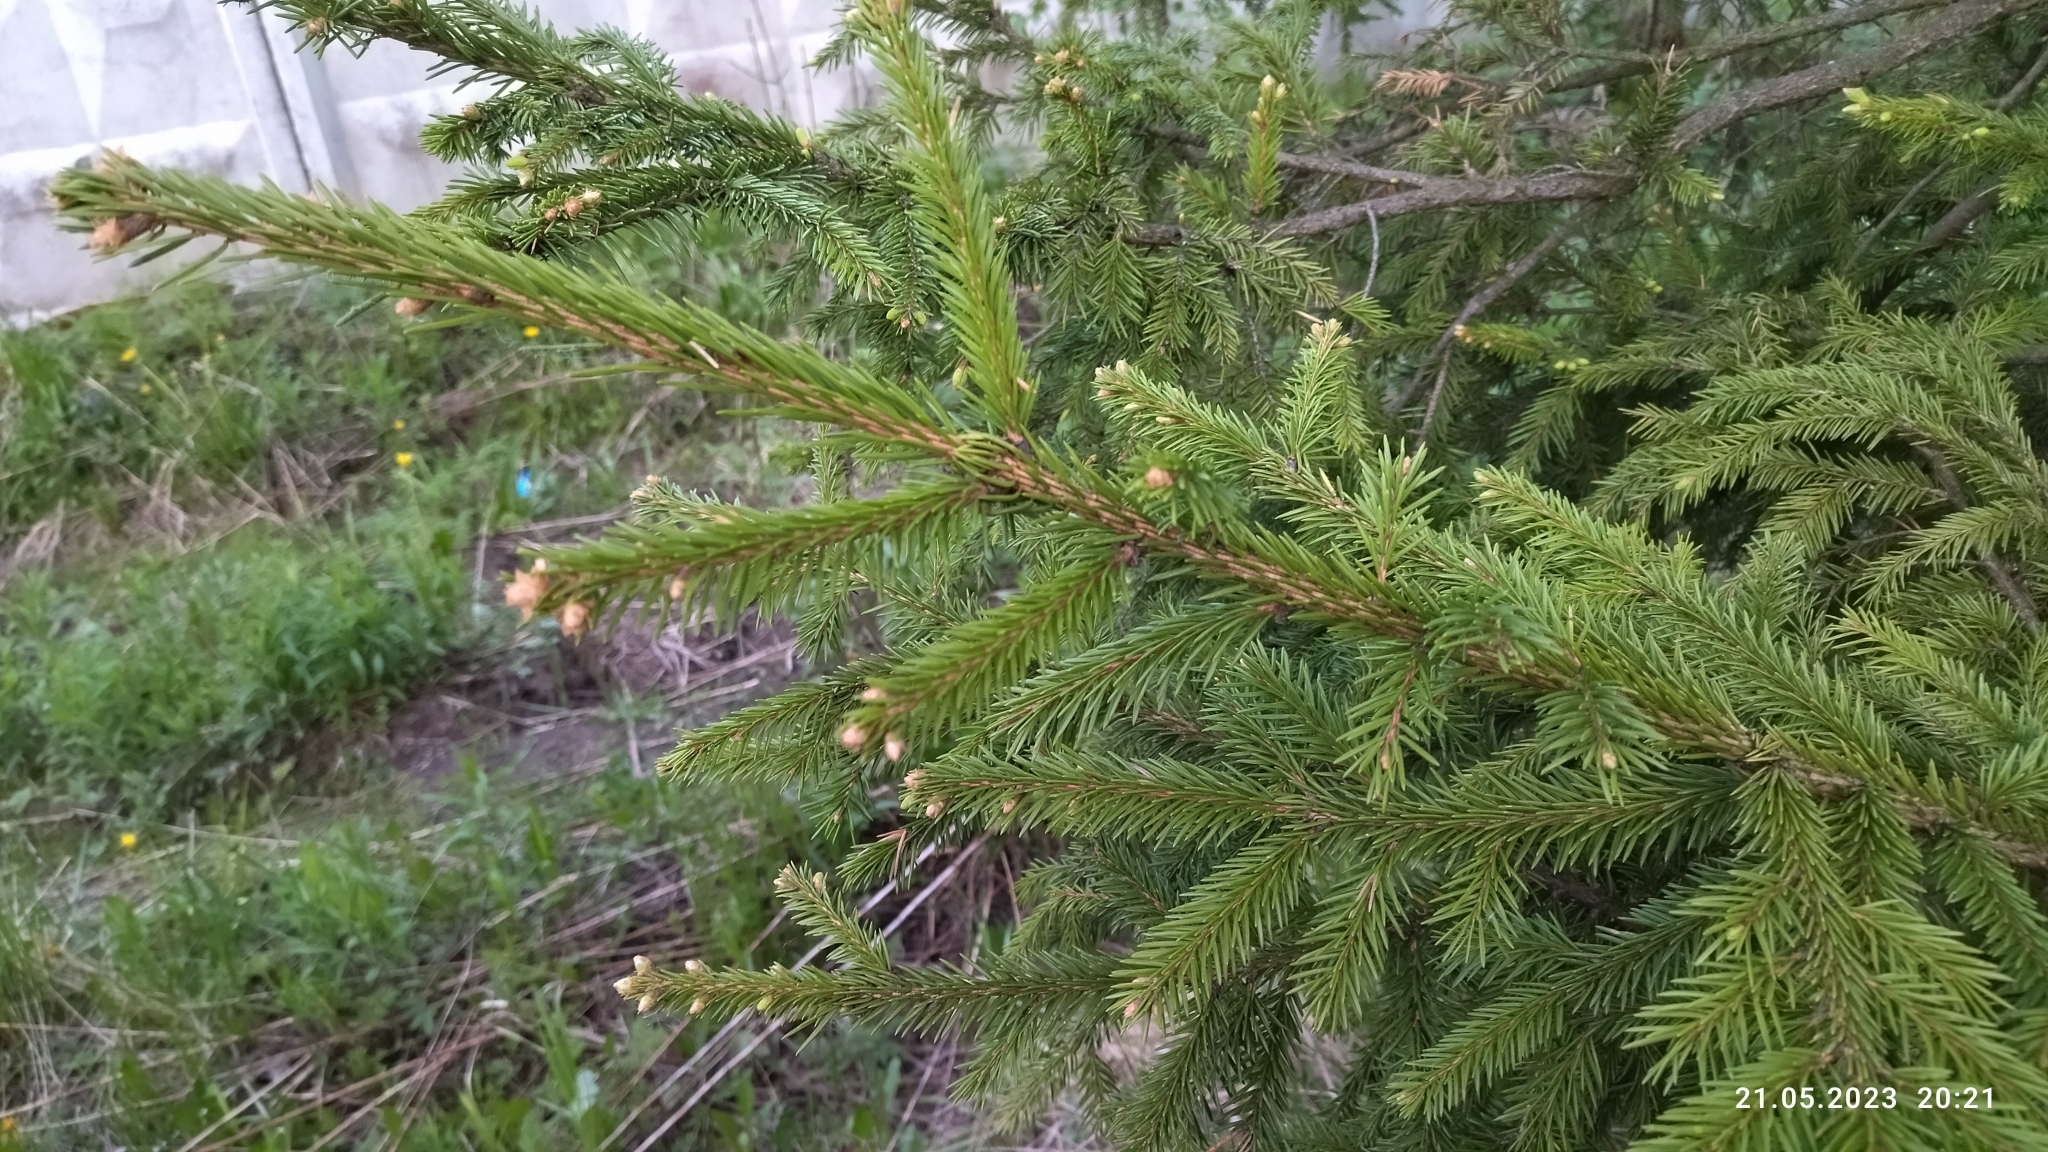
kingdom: Plantae
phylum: Tracheophyta
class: Pinopsida
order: Pinales
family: Pinaceae
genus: Picea
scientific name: Picea abies
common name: Norway spruce
